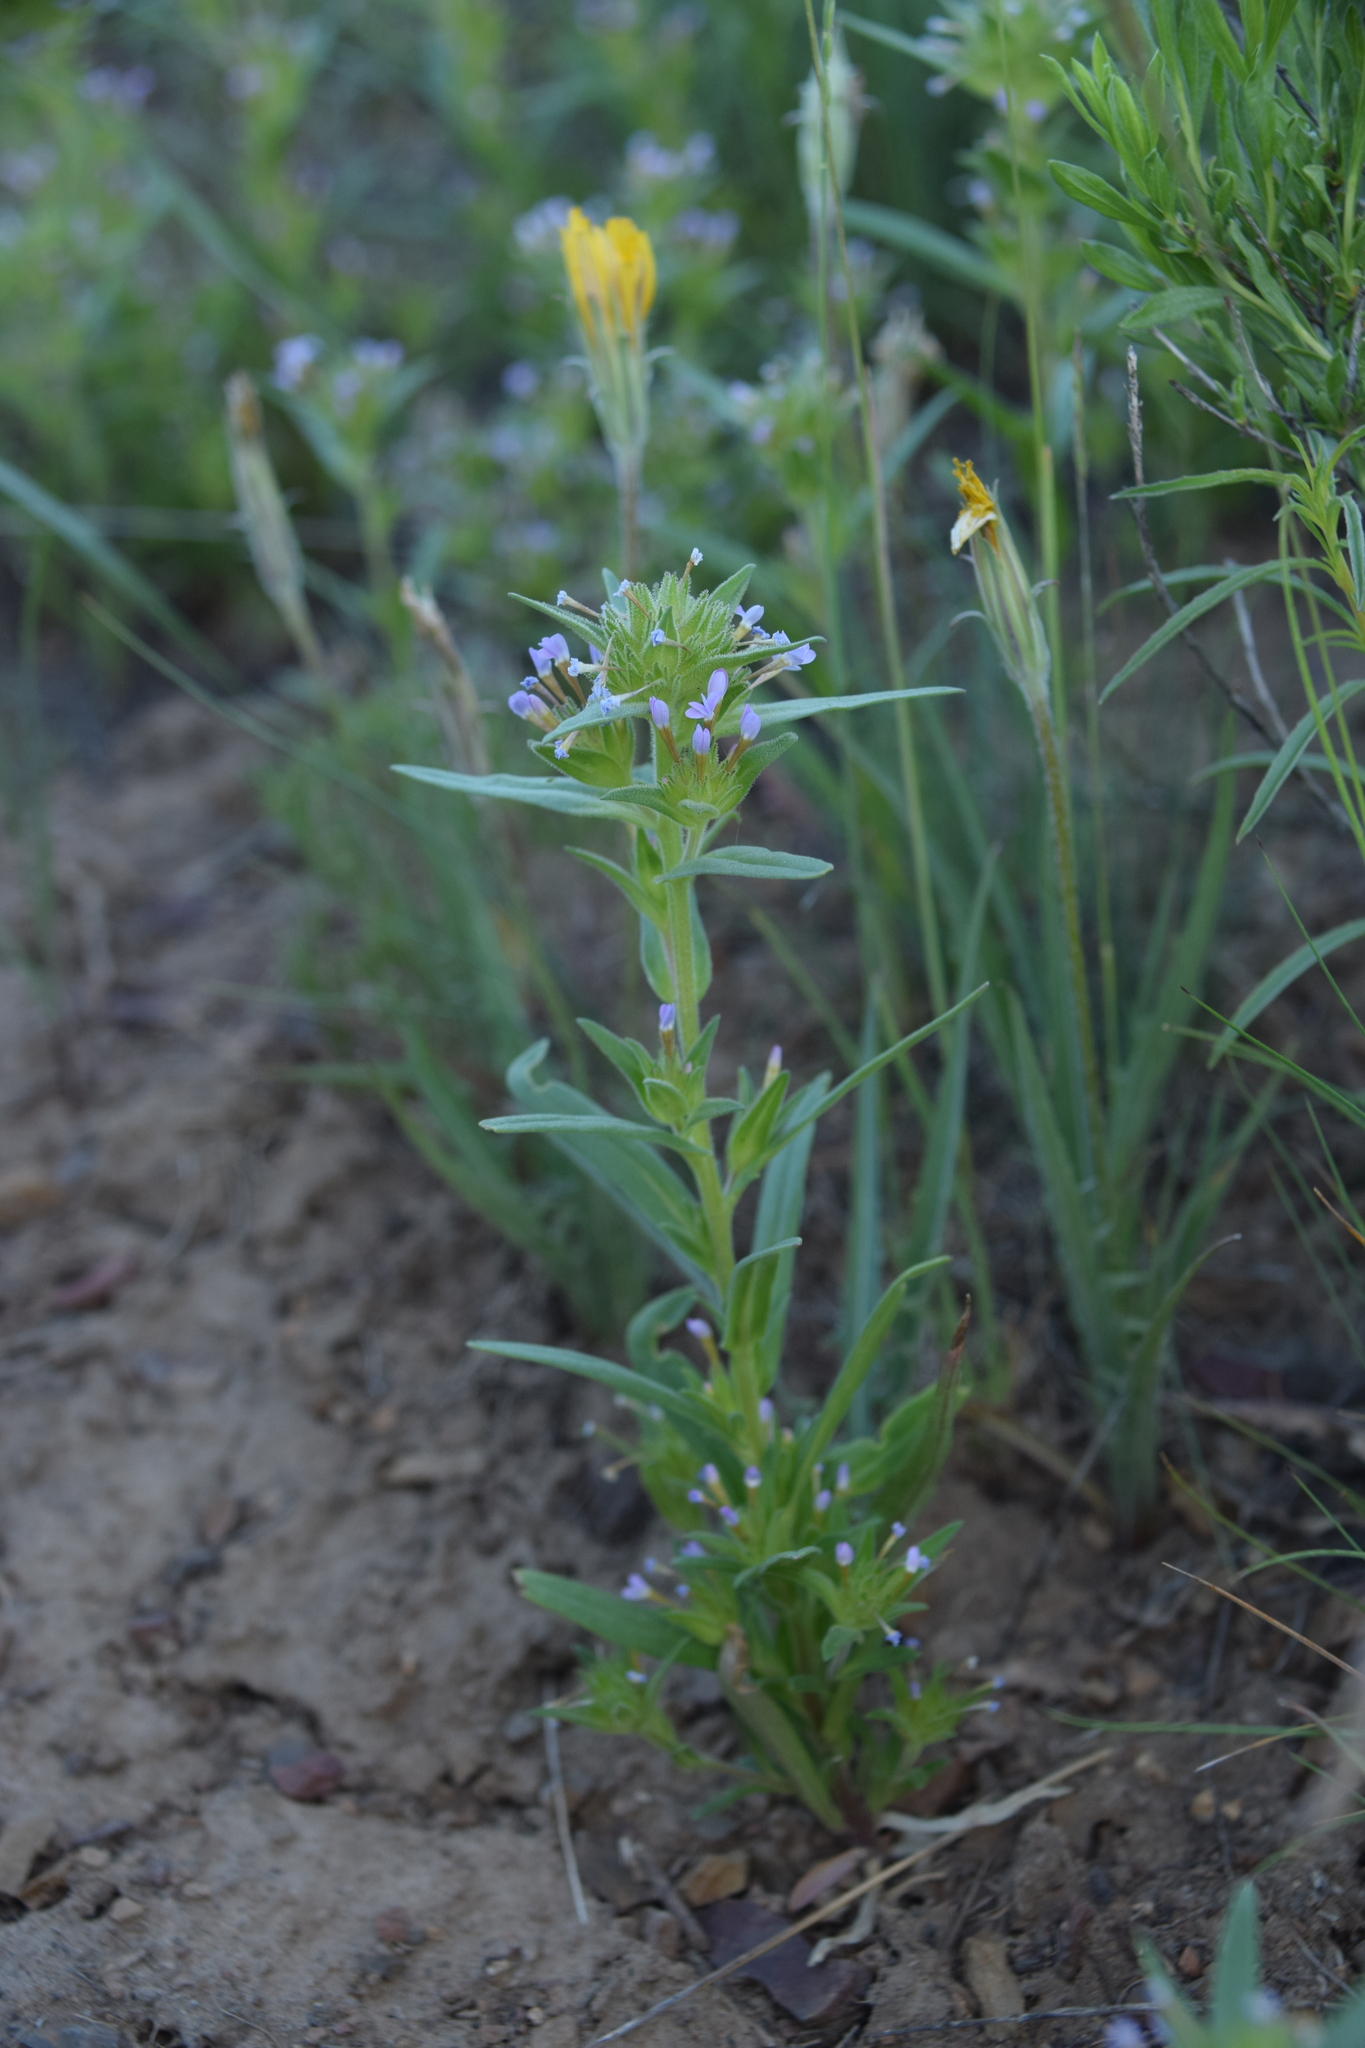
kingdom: Plantae
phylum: Tracheophyta
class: Magnoliopsida
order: Ericales
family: Polemoniaceae
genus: Collomia
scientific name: Collomia linearis
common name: Tiny trumpet
